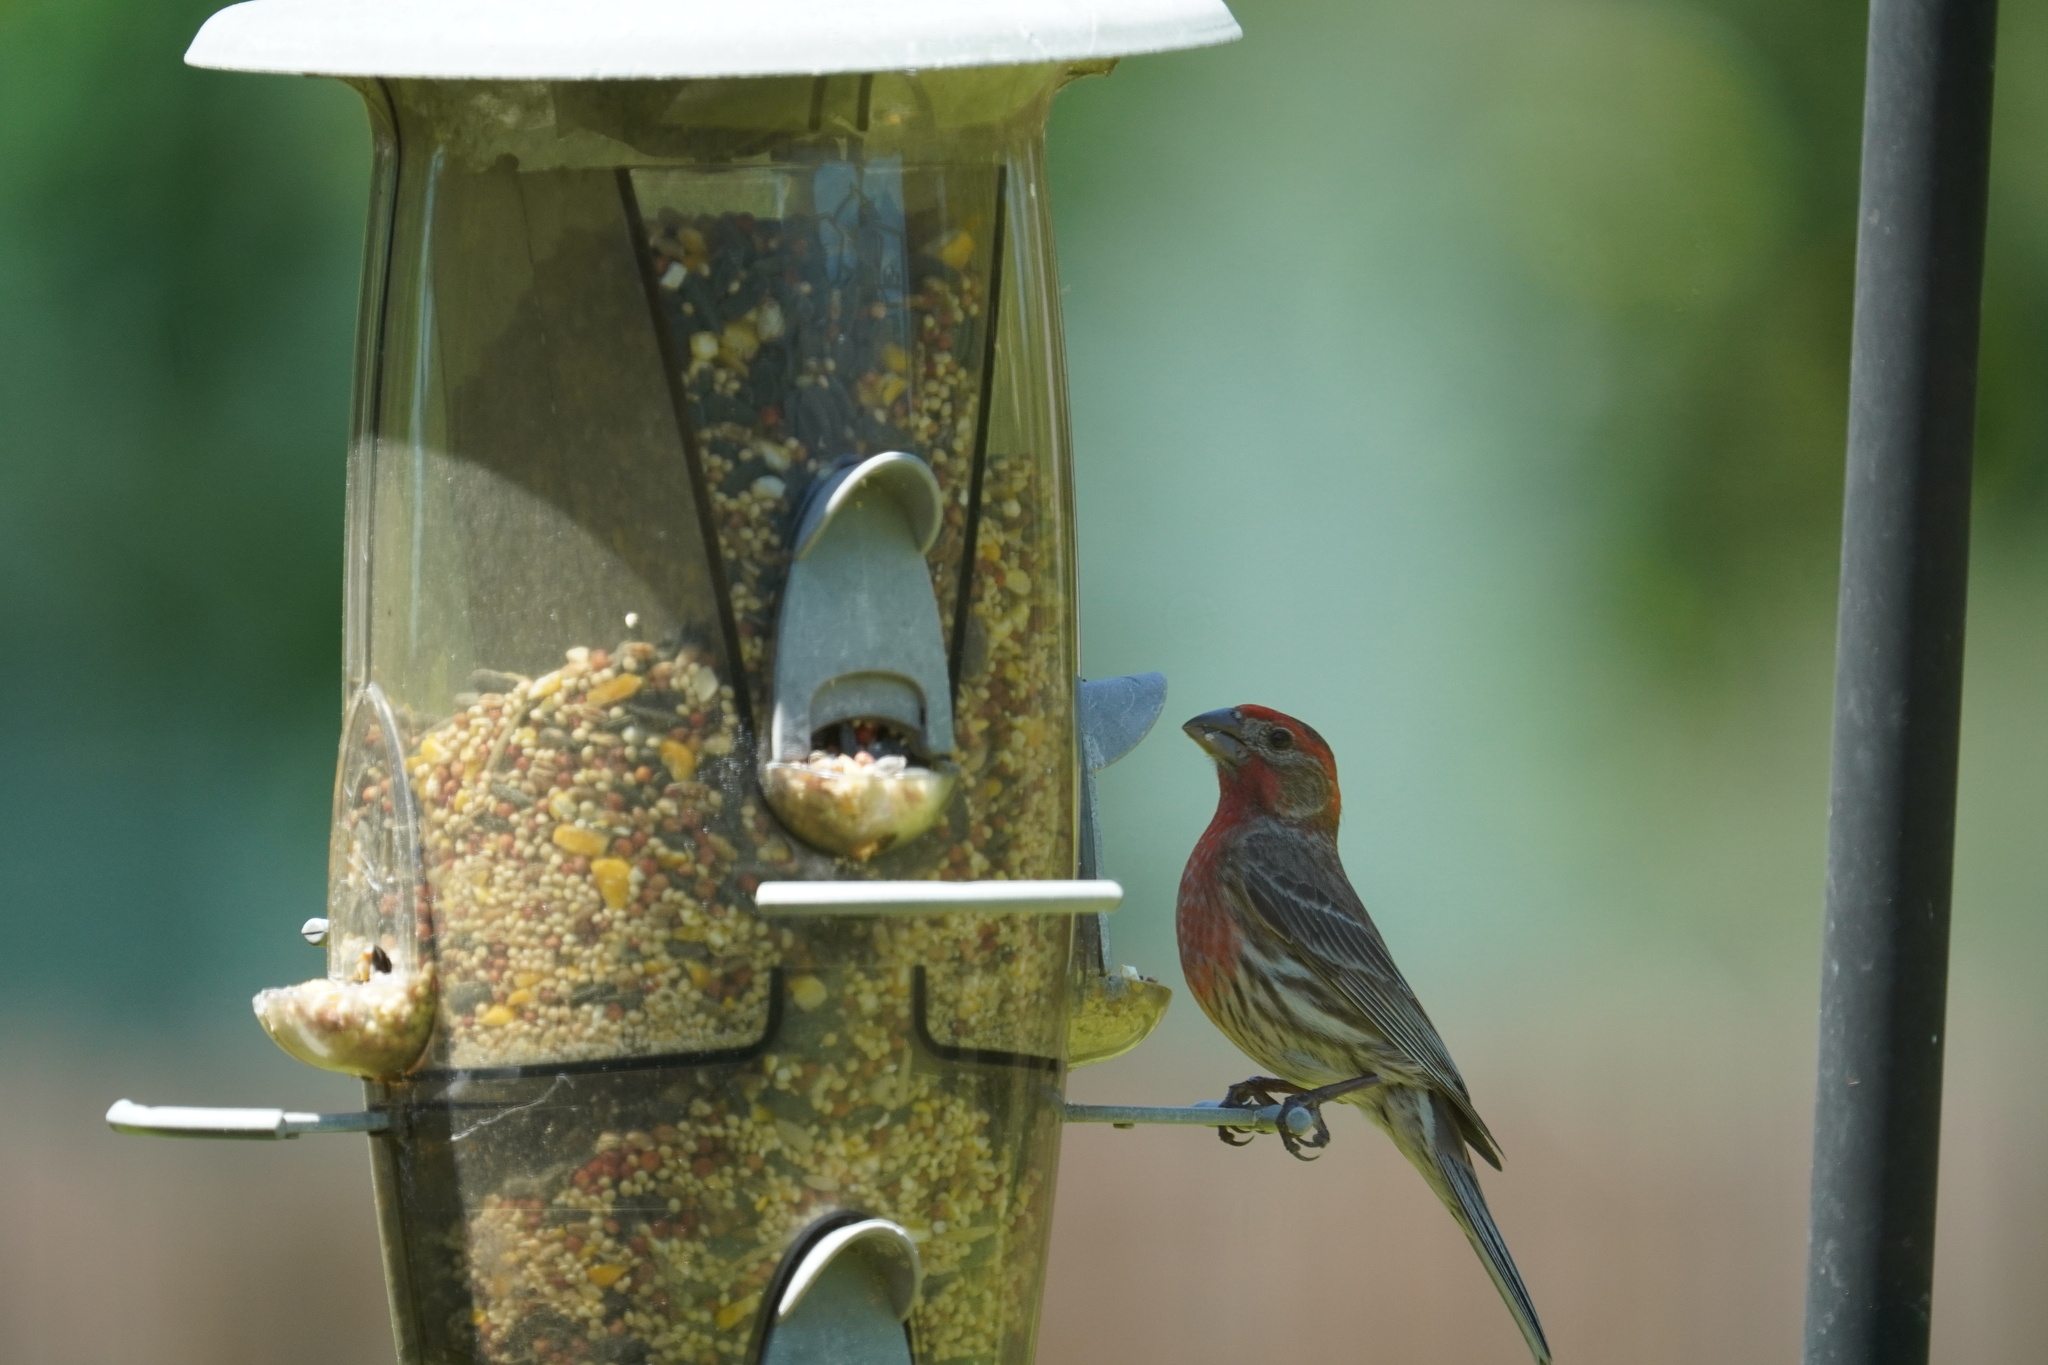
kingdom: Animalia
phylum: Chordata
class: Aves
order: Passeriformes
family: Fringillidae
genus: Haemorhous
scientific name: Haemorhous mexicanus
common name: House finch
